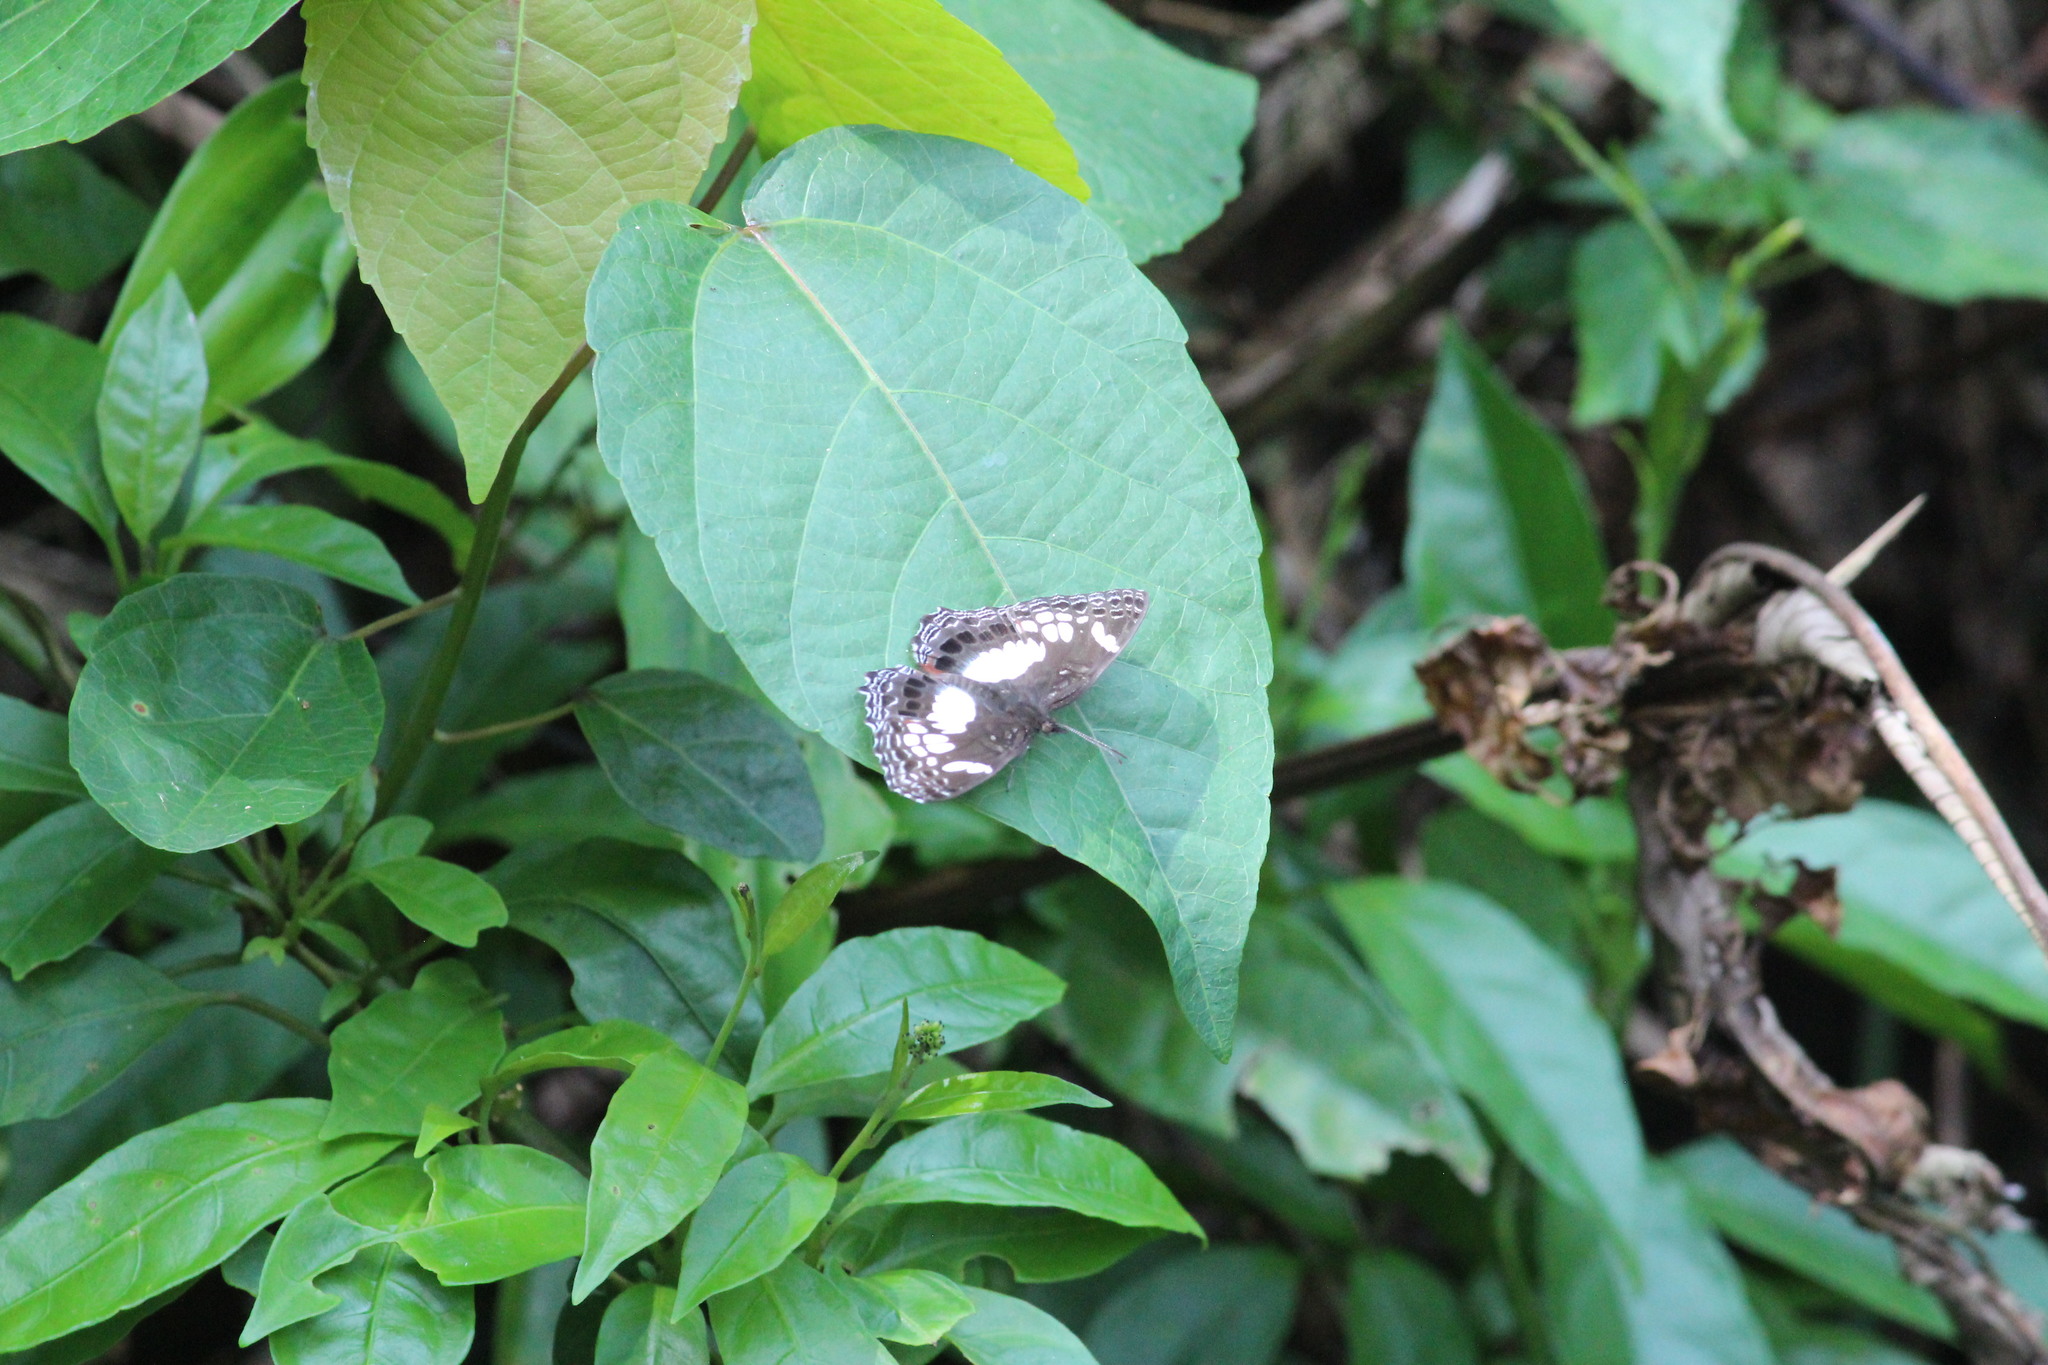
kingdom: Animalia
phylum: Arthropoda
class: Insecta
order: Lepidoptera
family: Nymphalidae
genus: Neptidopsis
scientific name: Neptidopsis ophione
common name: Scalloped false sailor
